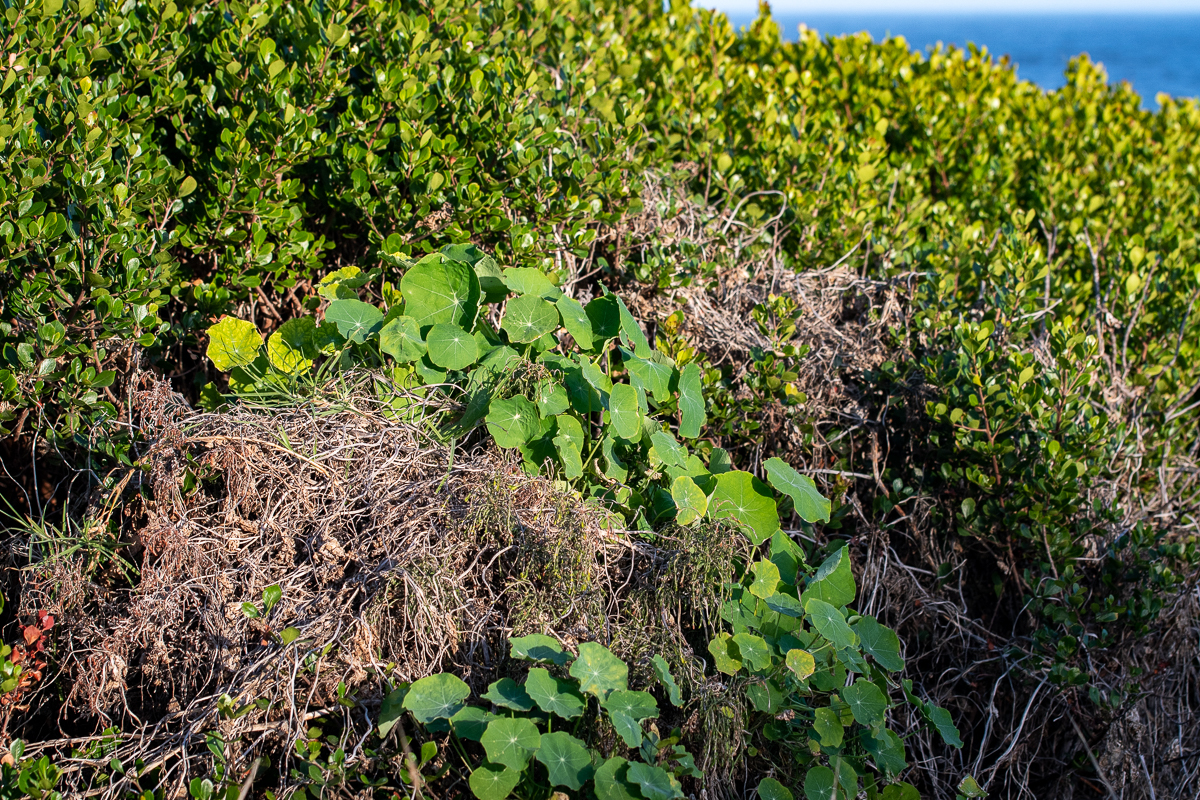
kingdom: Plantae
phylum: Tracheophyta
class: Magnoliopsida
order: Brassicales
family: Tropaeolaceae
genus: Tropaeolum
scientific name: Tropaeolum majus
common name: Nasturtium
